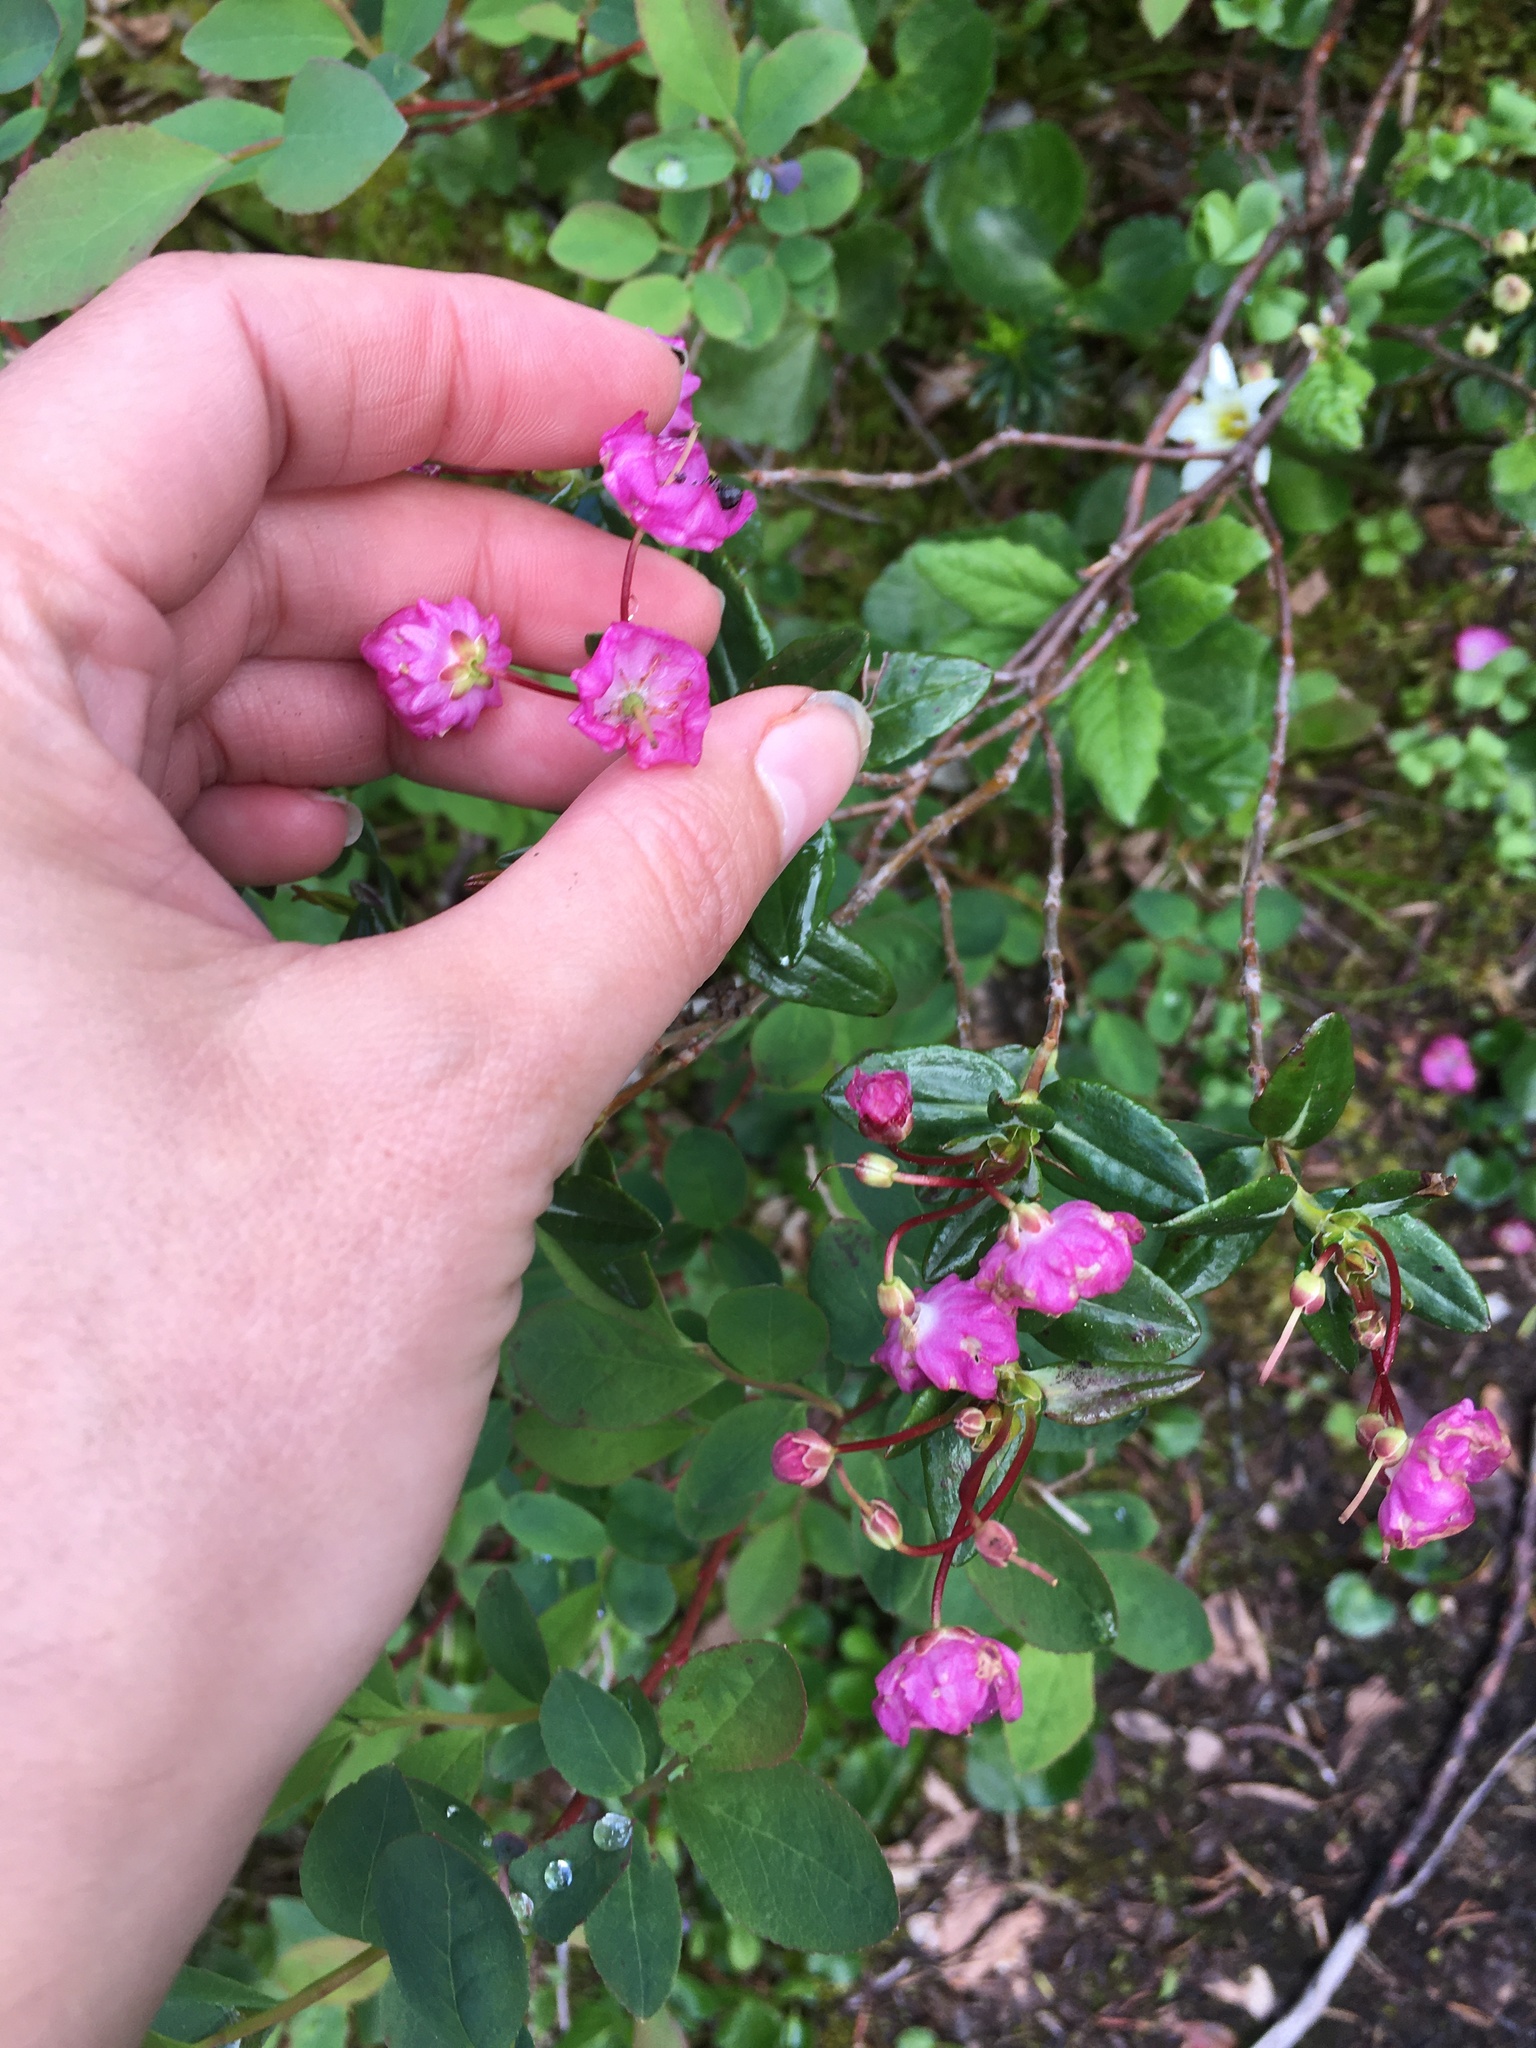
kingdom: Plantae
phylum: Tracheophyta
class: Magnoliopsida
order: Ericales
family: Ericaceae
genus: Kalmia
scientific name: Kalmia microphylla
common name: Alpine bog laurel
